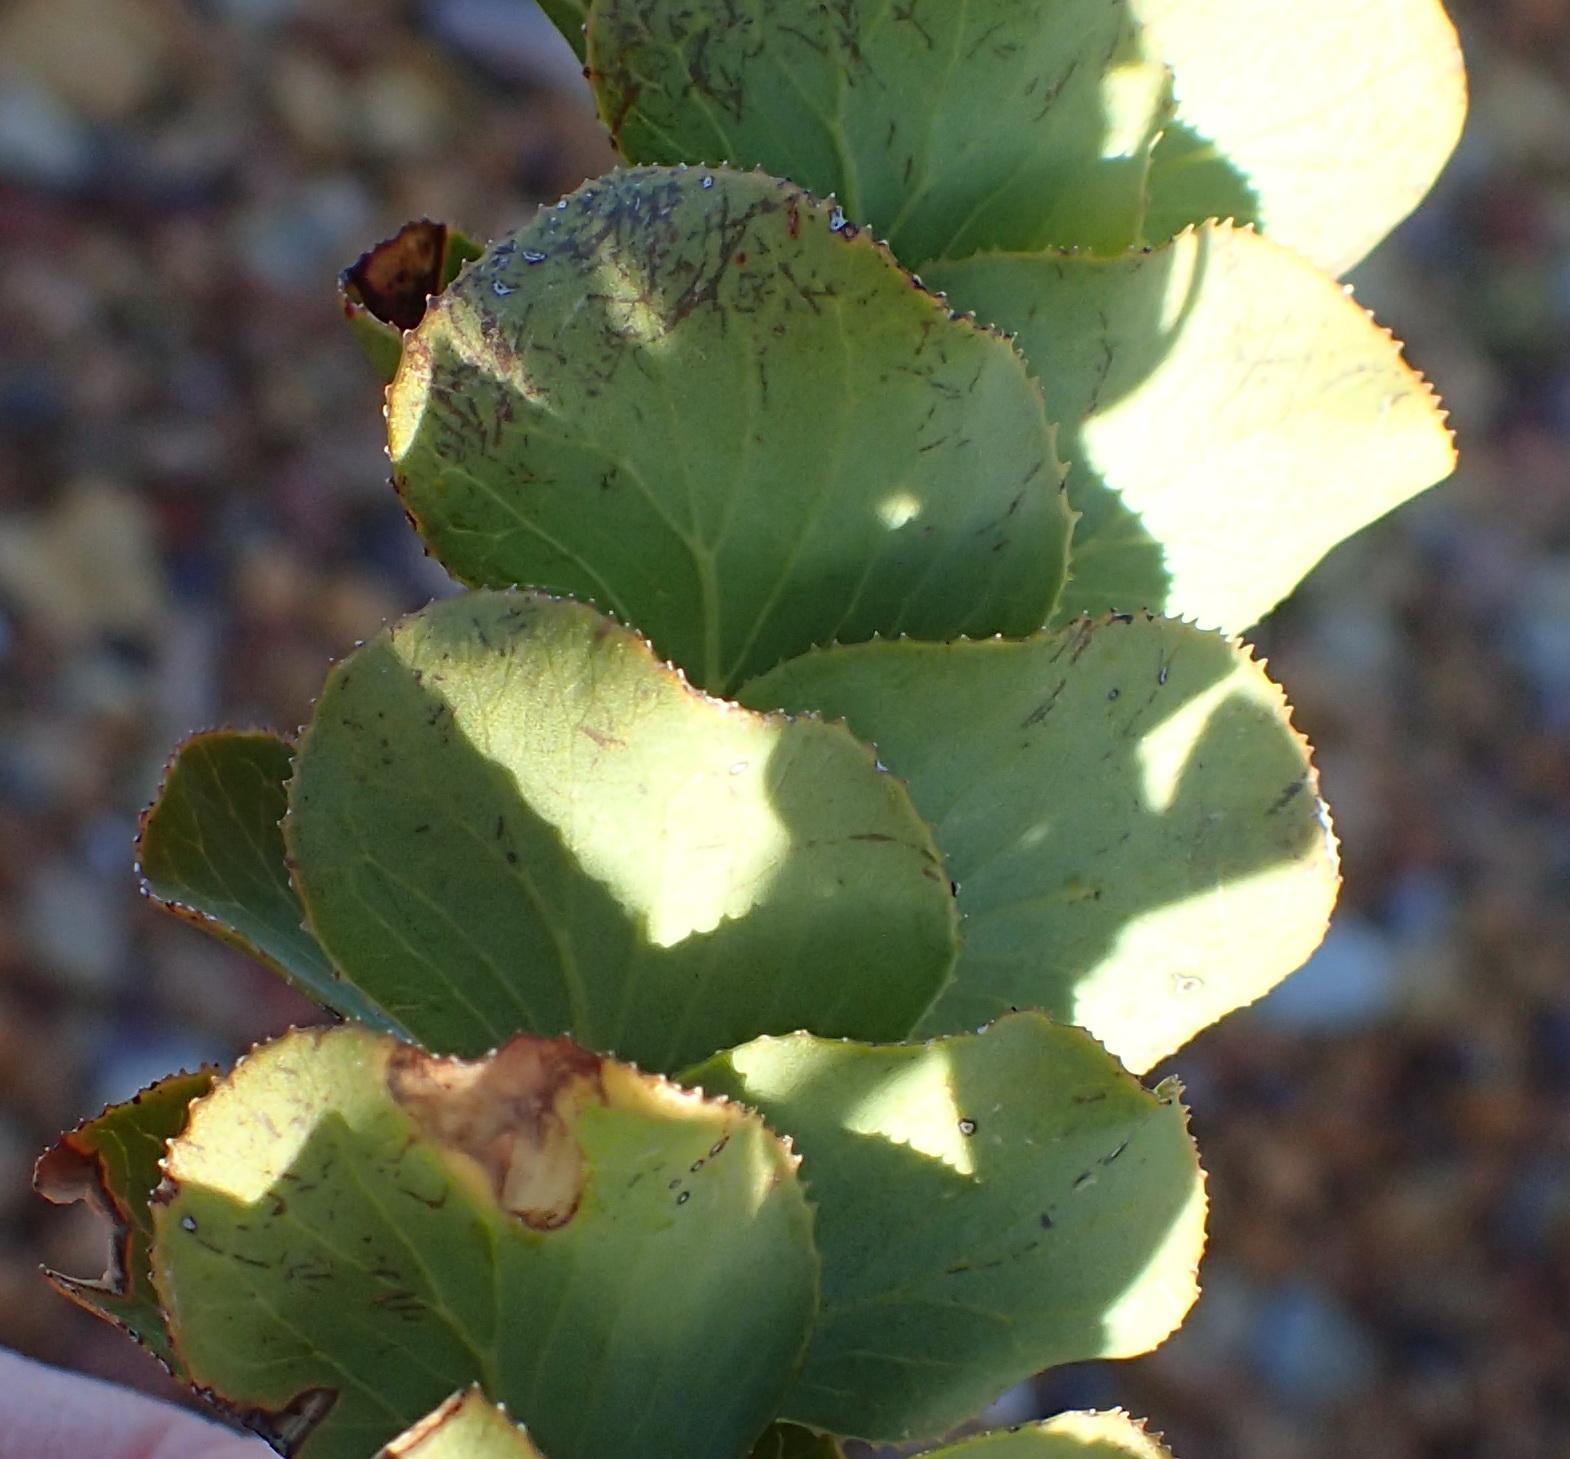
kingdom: Plantae
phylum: Tracheophyta
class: Magnoliopsida
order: Rosales
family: Rosaceae
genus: Cliffortia
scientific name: Cliffortia crenata
